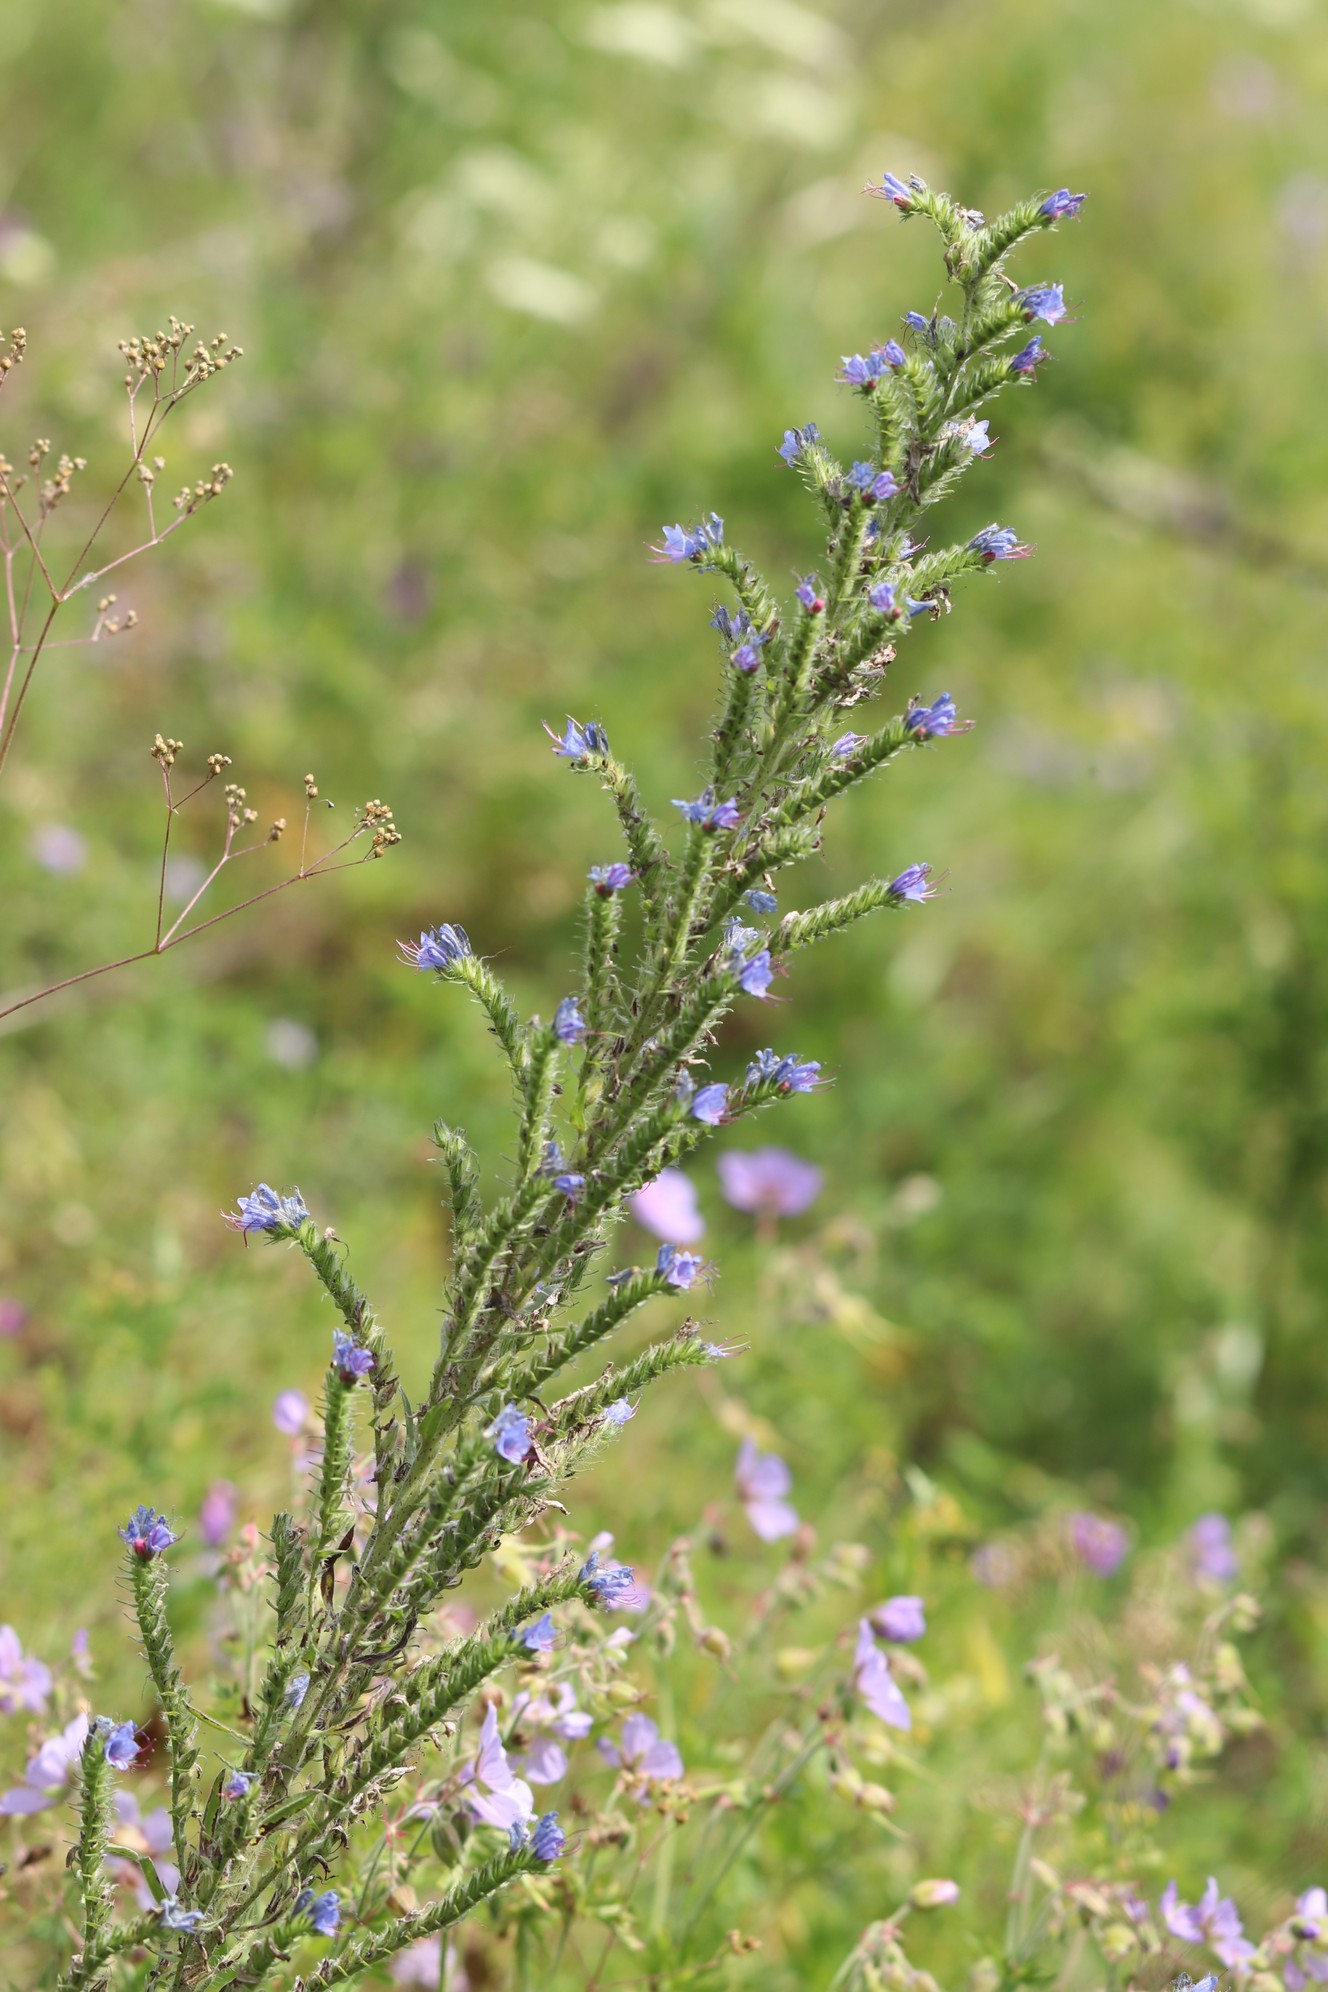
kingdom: Plantae
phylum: Tracheophyta
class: Magnoliopsida
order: Boraginales
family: Boraginaceae
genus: Echium
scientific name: Echium vulgare
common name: Common viper's bugloss
